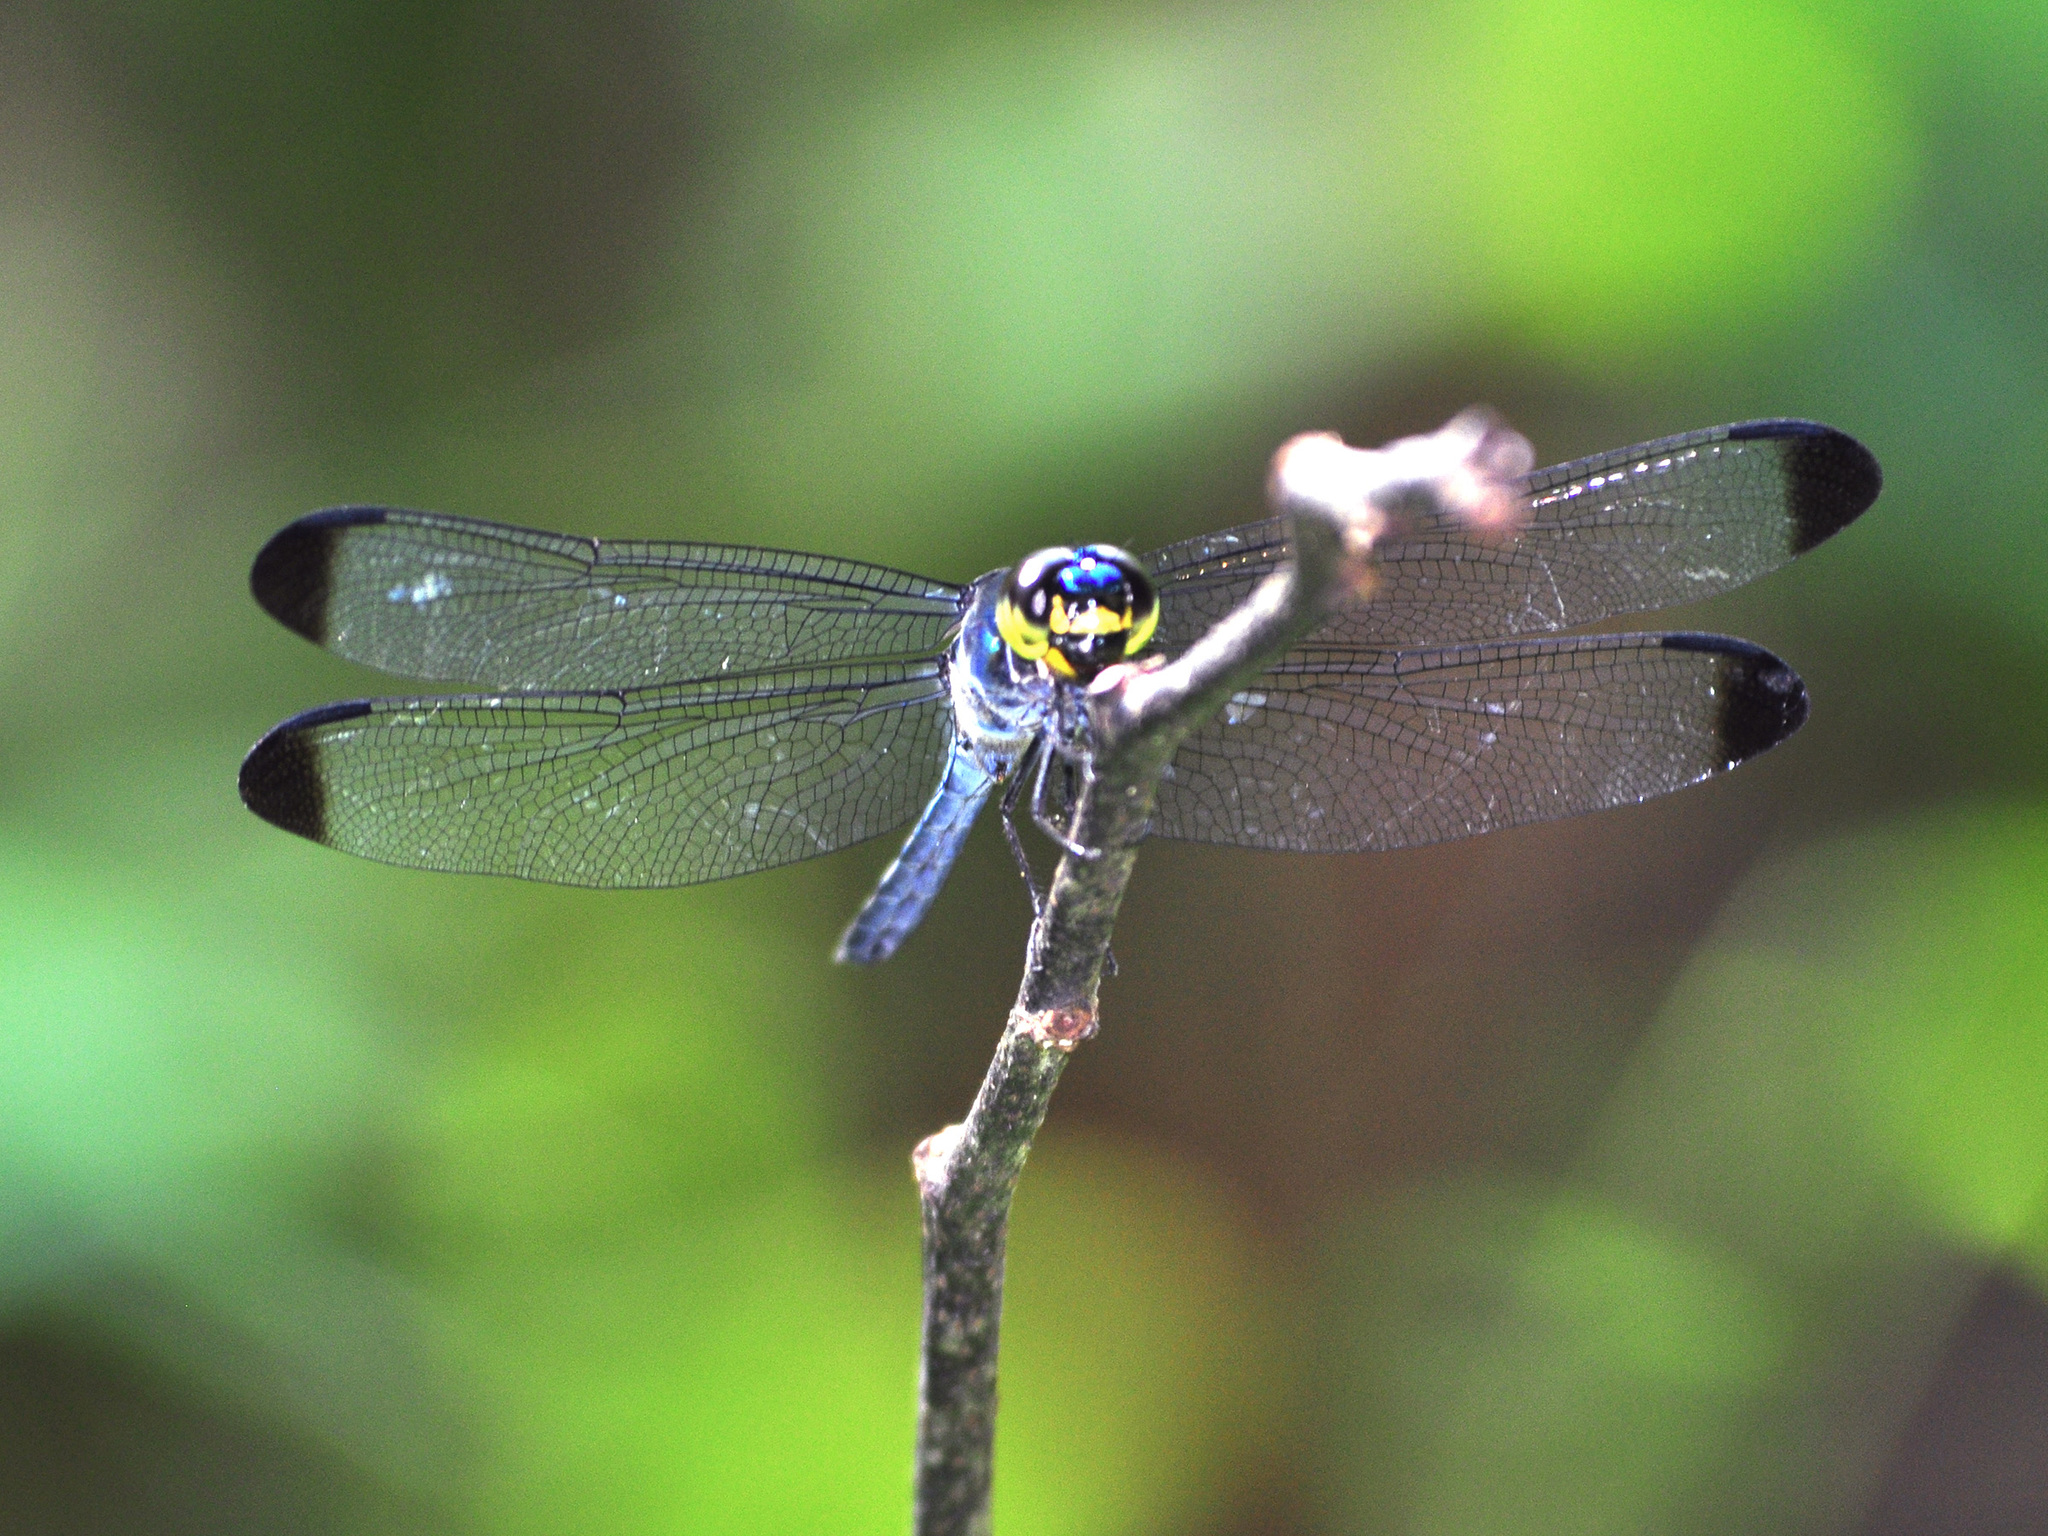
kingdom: Animalia
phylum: Arthropoda
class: Insecta
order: Odonata
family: Libellulidae
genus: Cratilla
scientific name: Cratilla metallica
